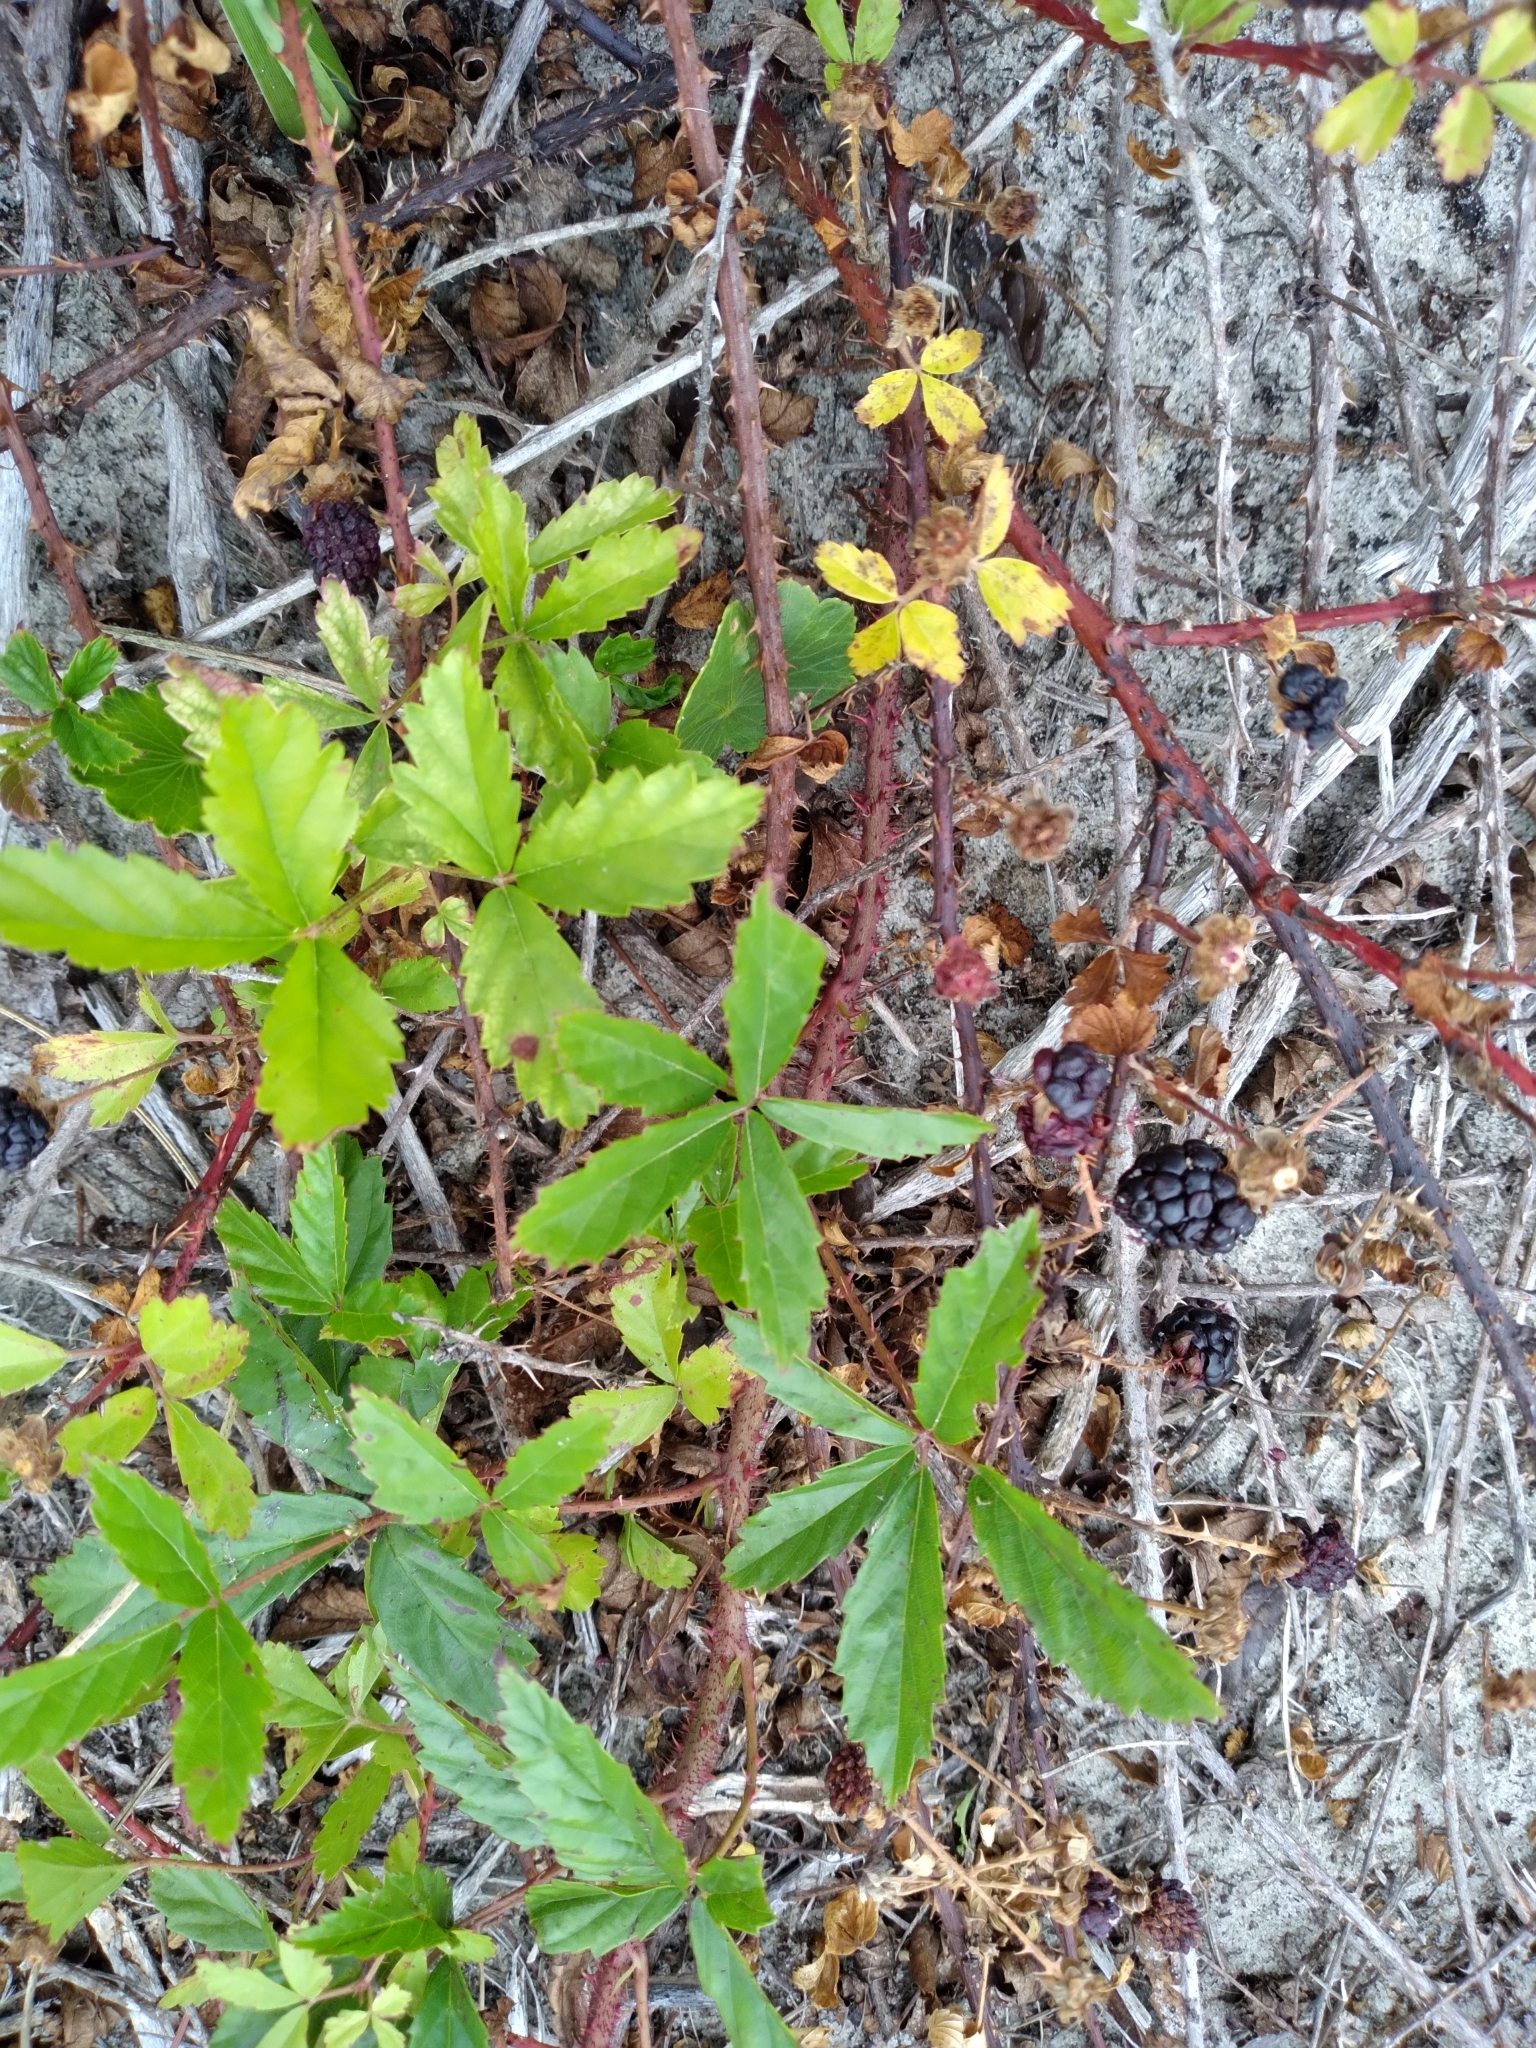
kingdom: Plantae
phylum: Tracheophyta
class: Magnoliopsida
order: Rosales
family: Rosaceae
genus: Rubus
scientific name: Rubus trivialis
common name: Southern dewberry
